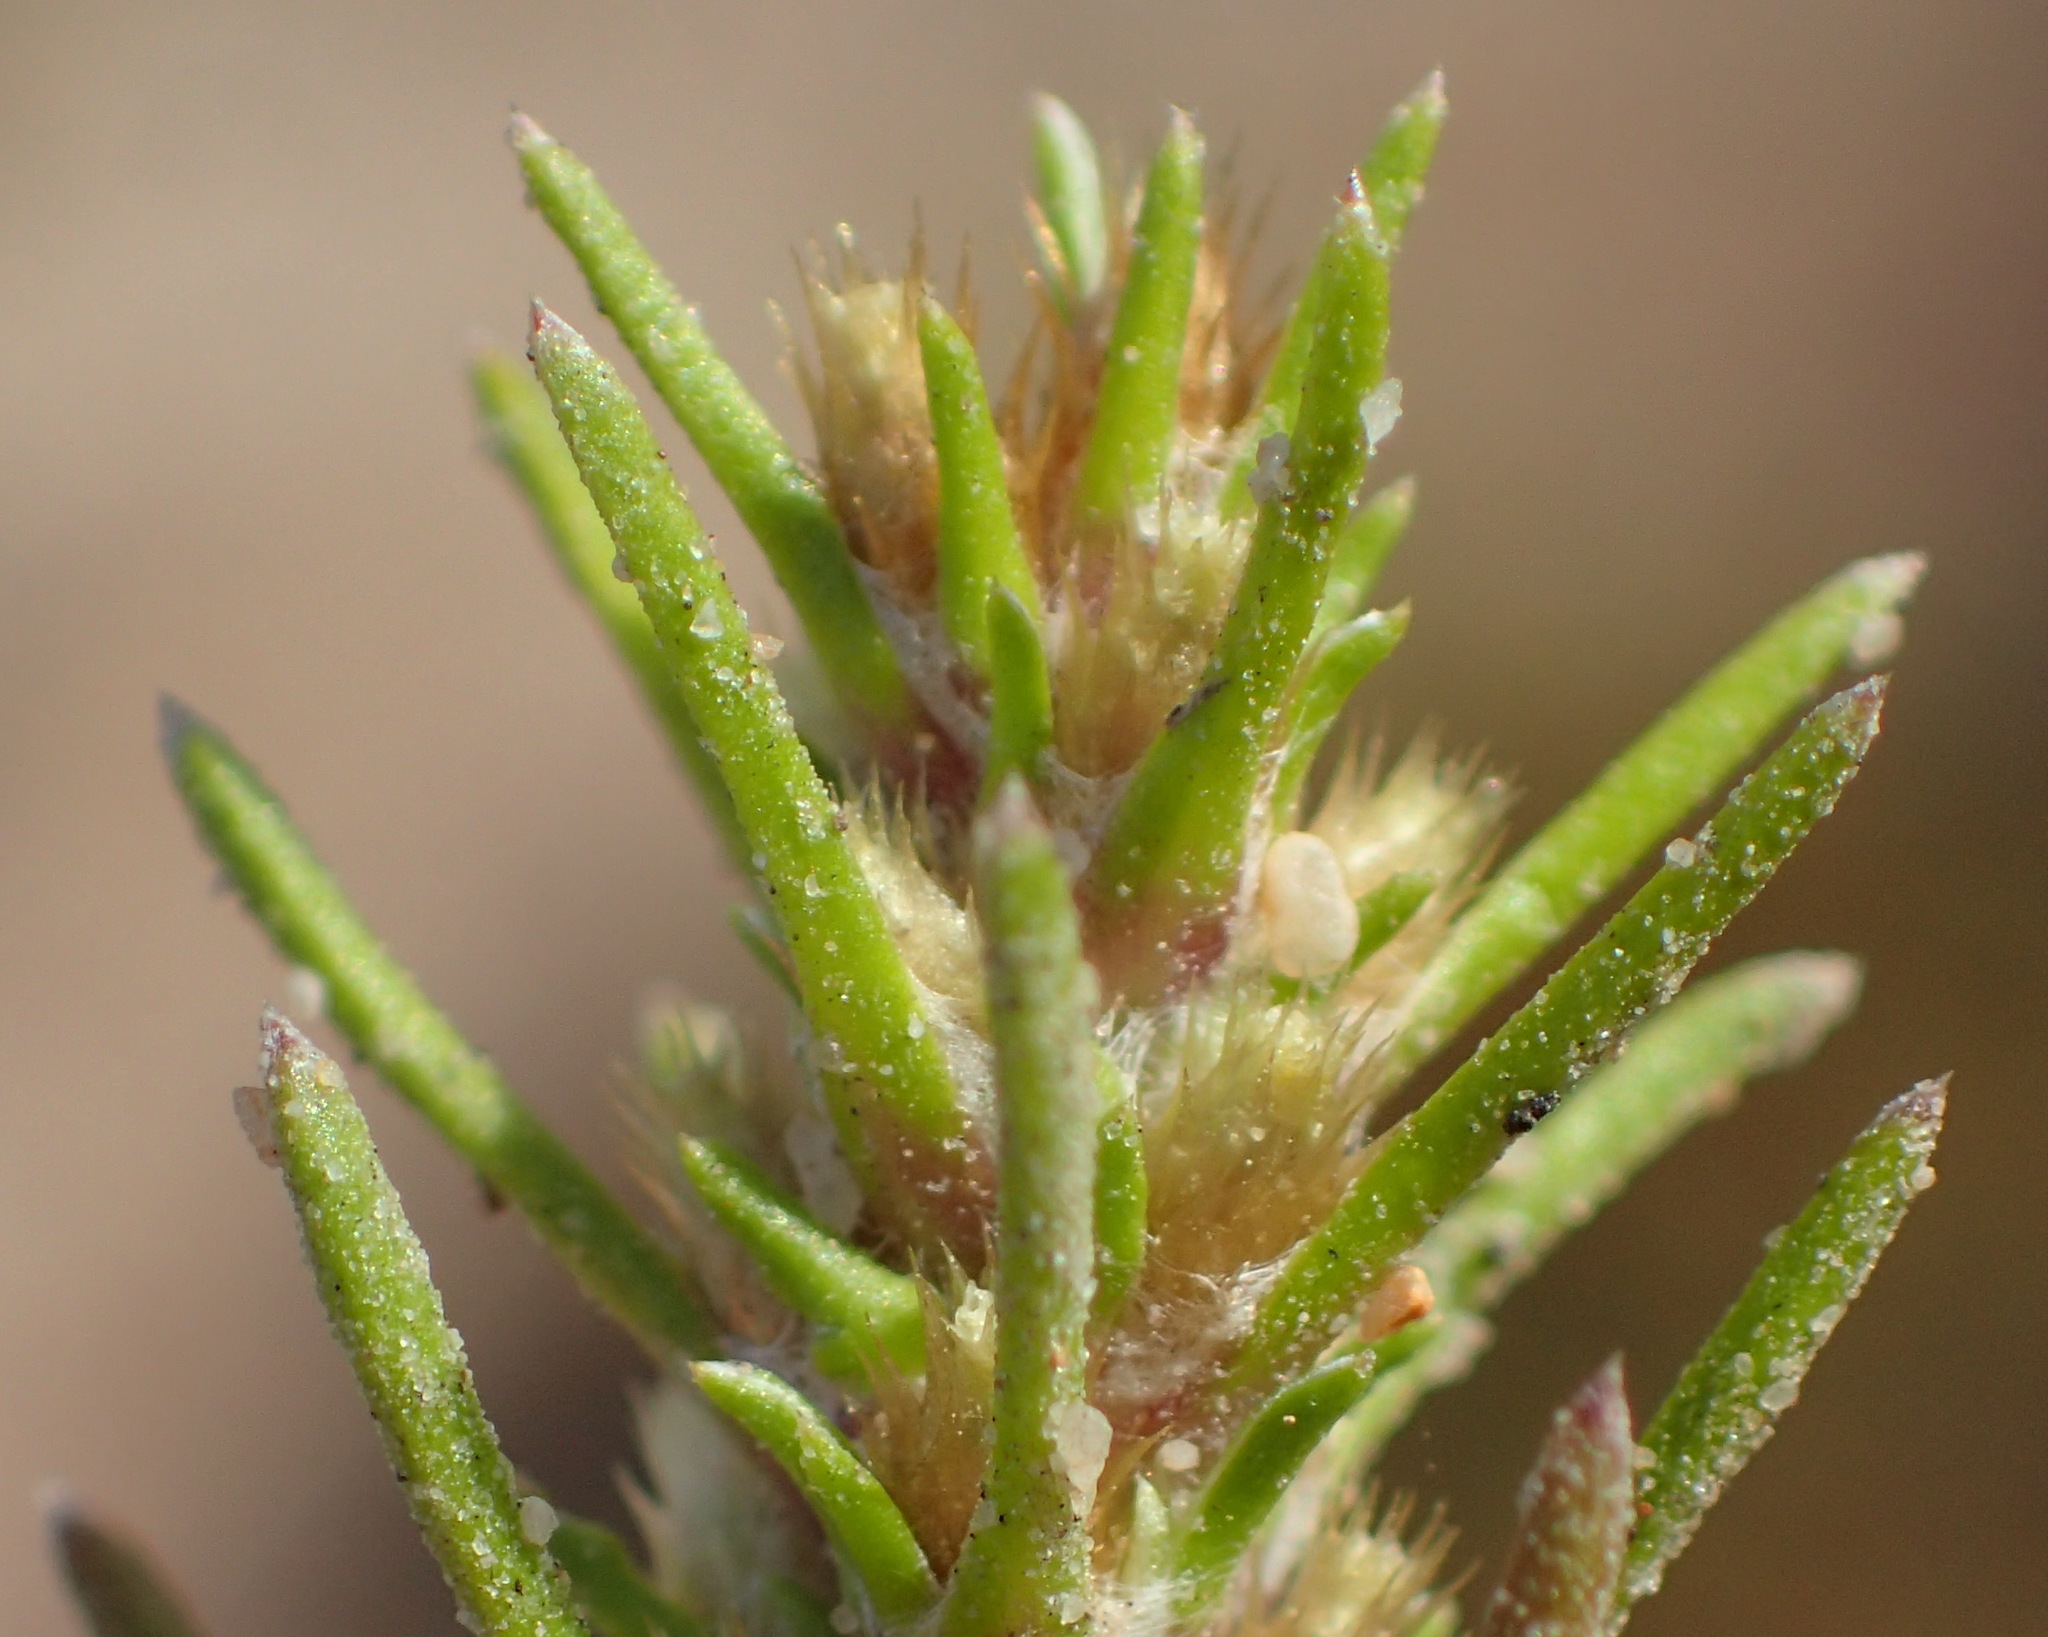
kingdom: Plantae
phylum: Tracheophyta
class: Magnoliopsida
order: Asterales
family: Asteraceae
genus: Ifloga
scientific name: Ifloga glomerata
